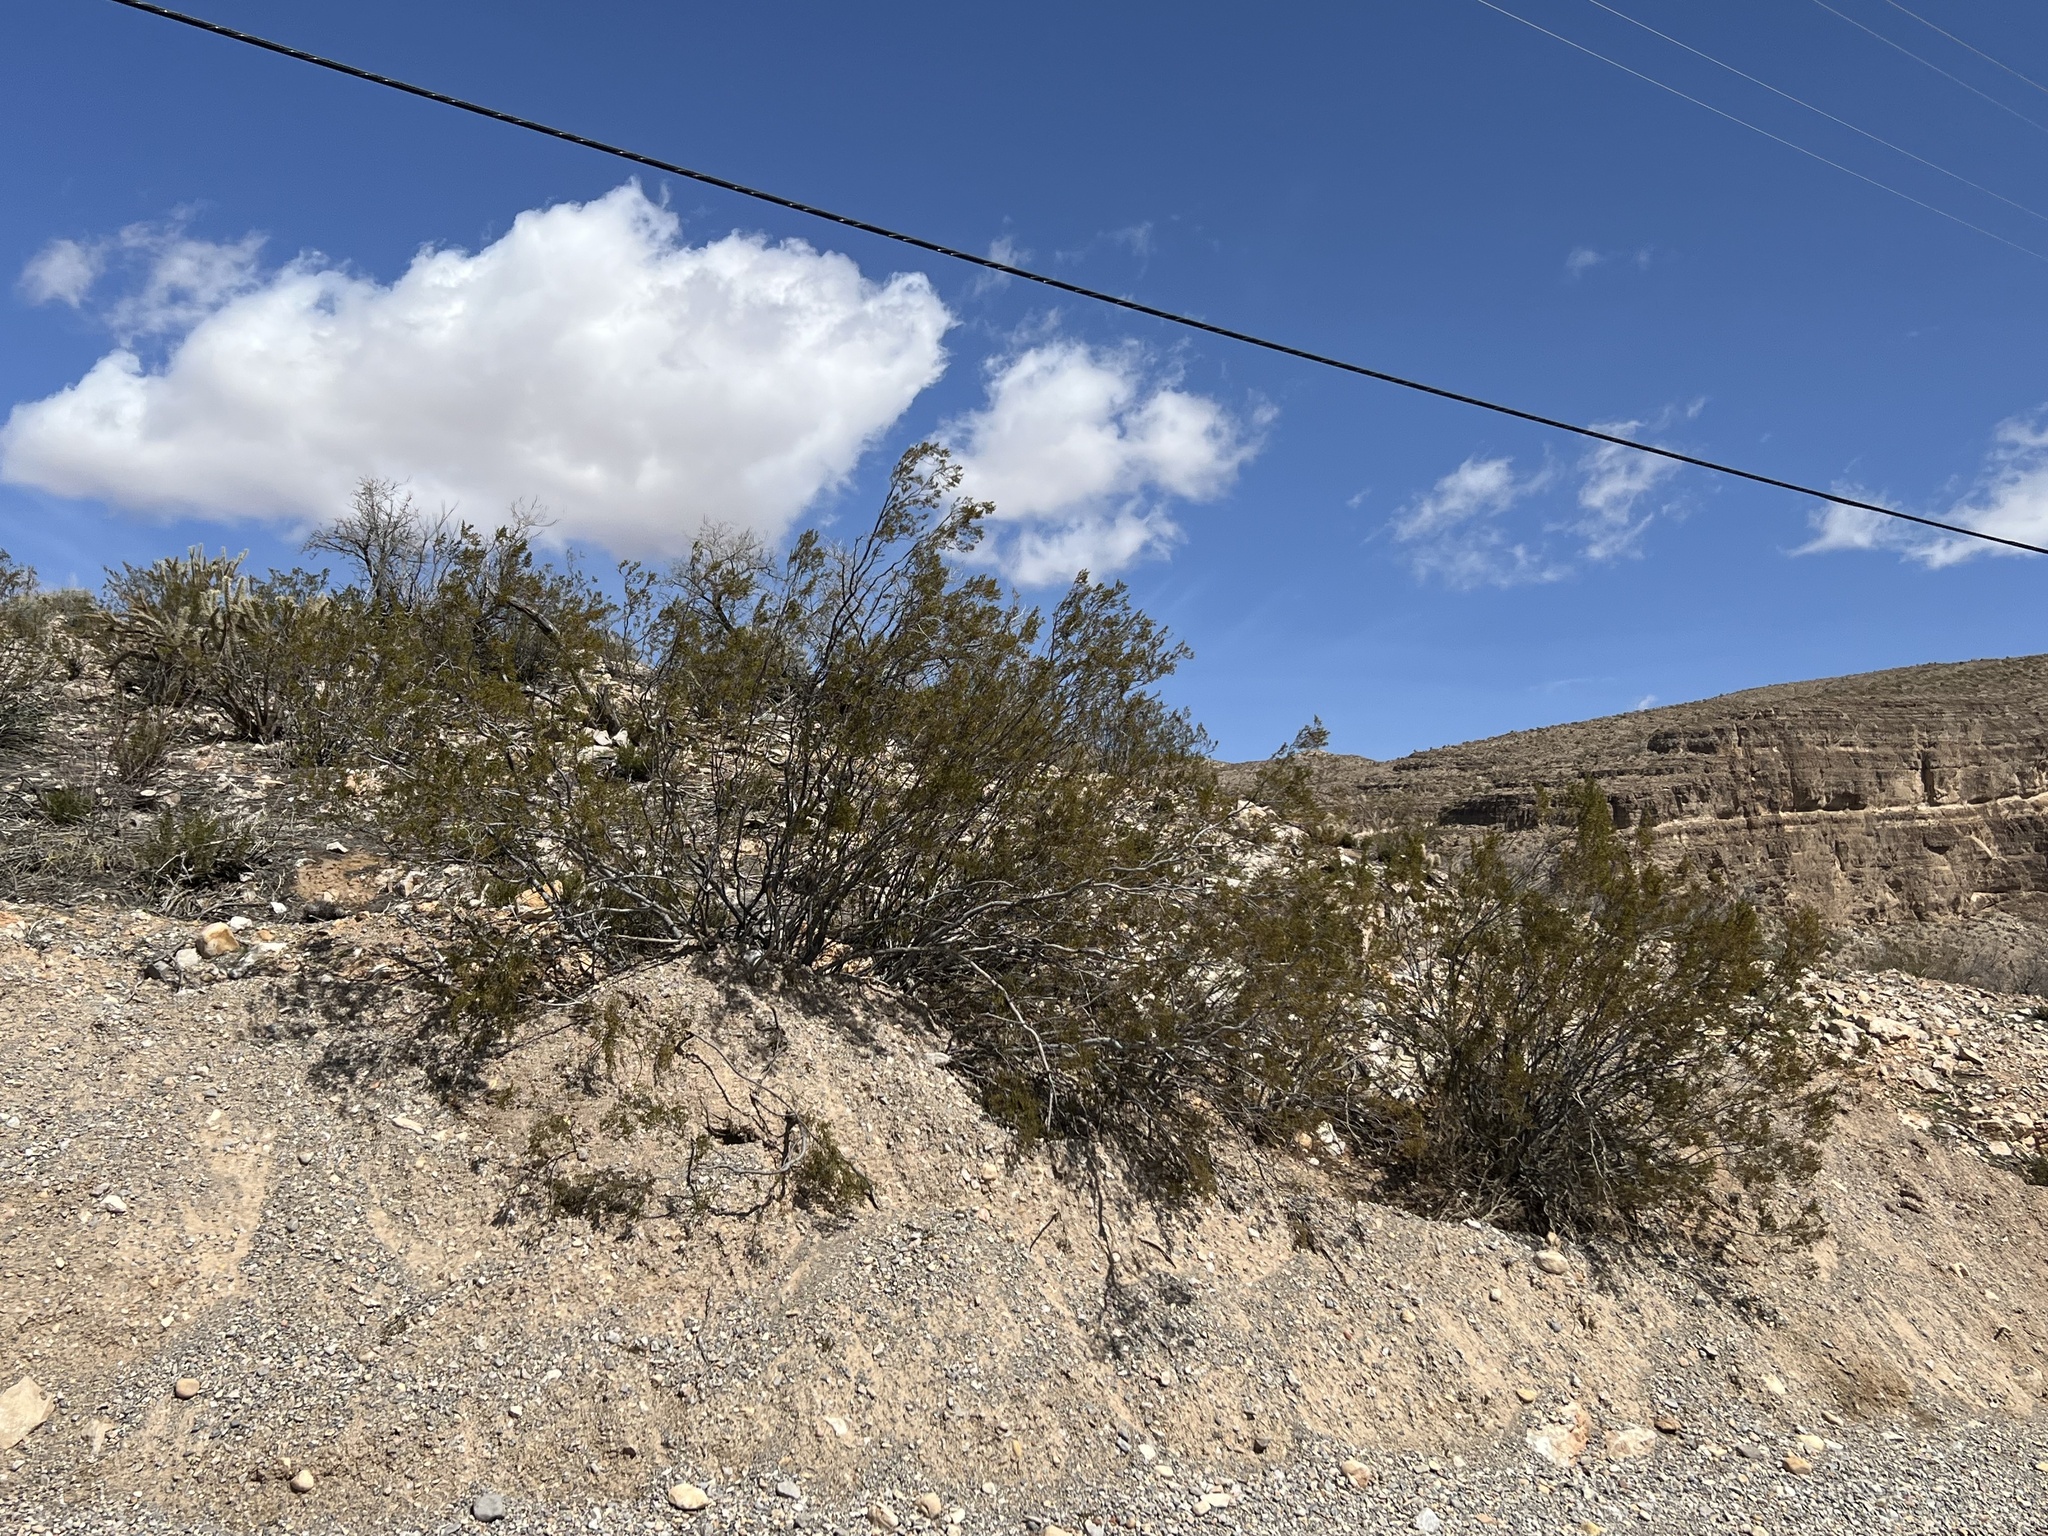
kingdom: Plantae
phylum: Tracheophyta
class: Magnoliopsida
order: Zygophyllales
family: Zygophyllaceae
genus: Larrea
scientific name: Larrea tridentata
